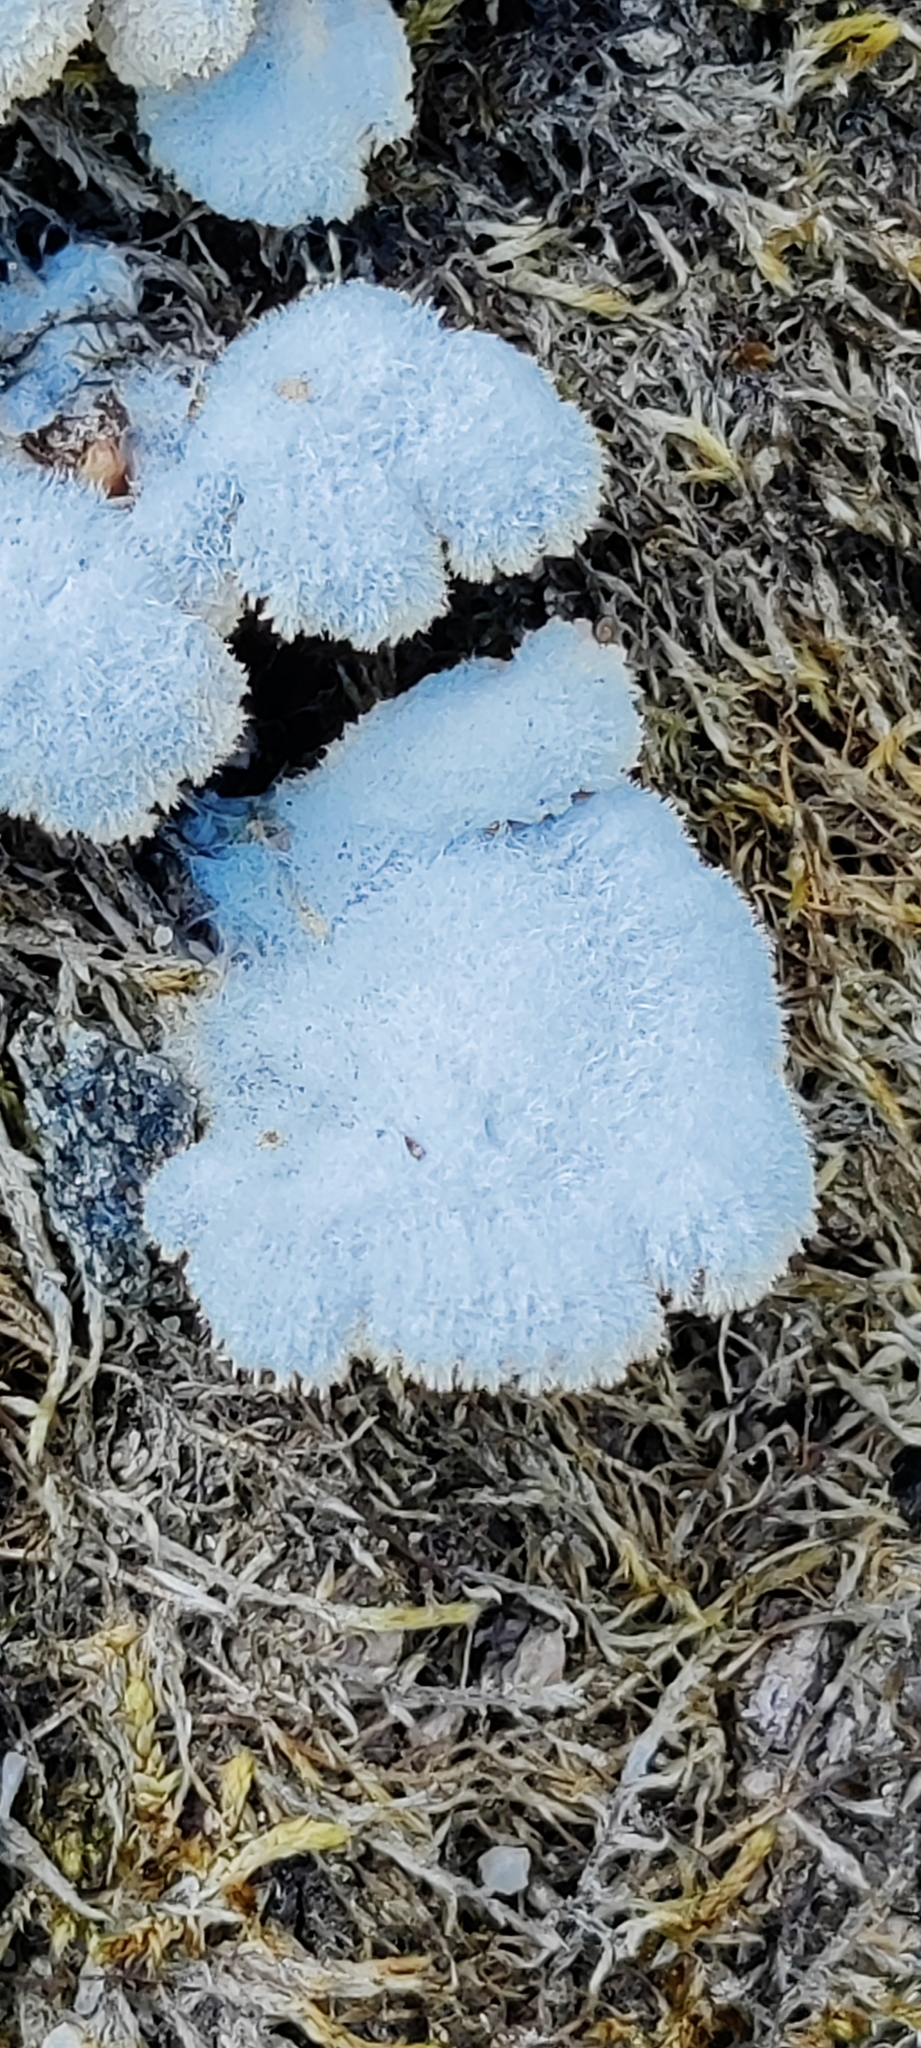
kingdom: Fungi
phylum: Basidiomycota
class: Agaricomycetes
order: Agaricales
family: Schizophyllaceae
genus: Schizophyllum
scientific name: Schizophyllum commune
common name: Common porecrust
